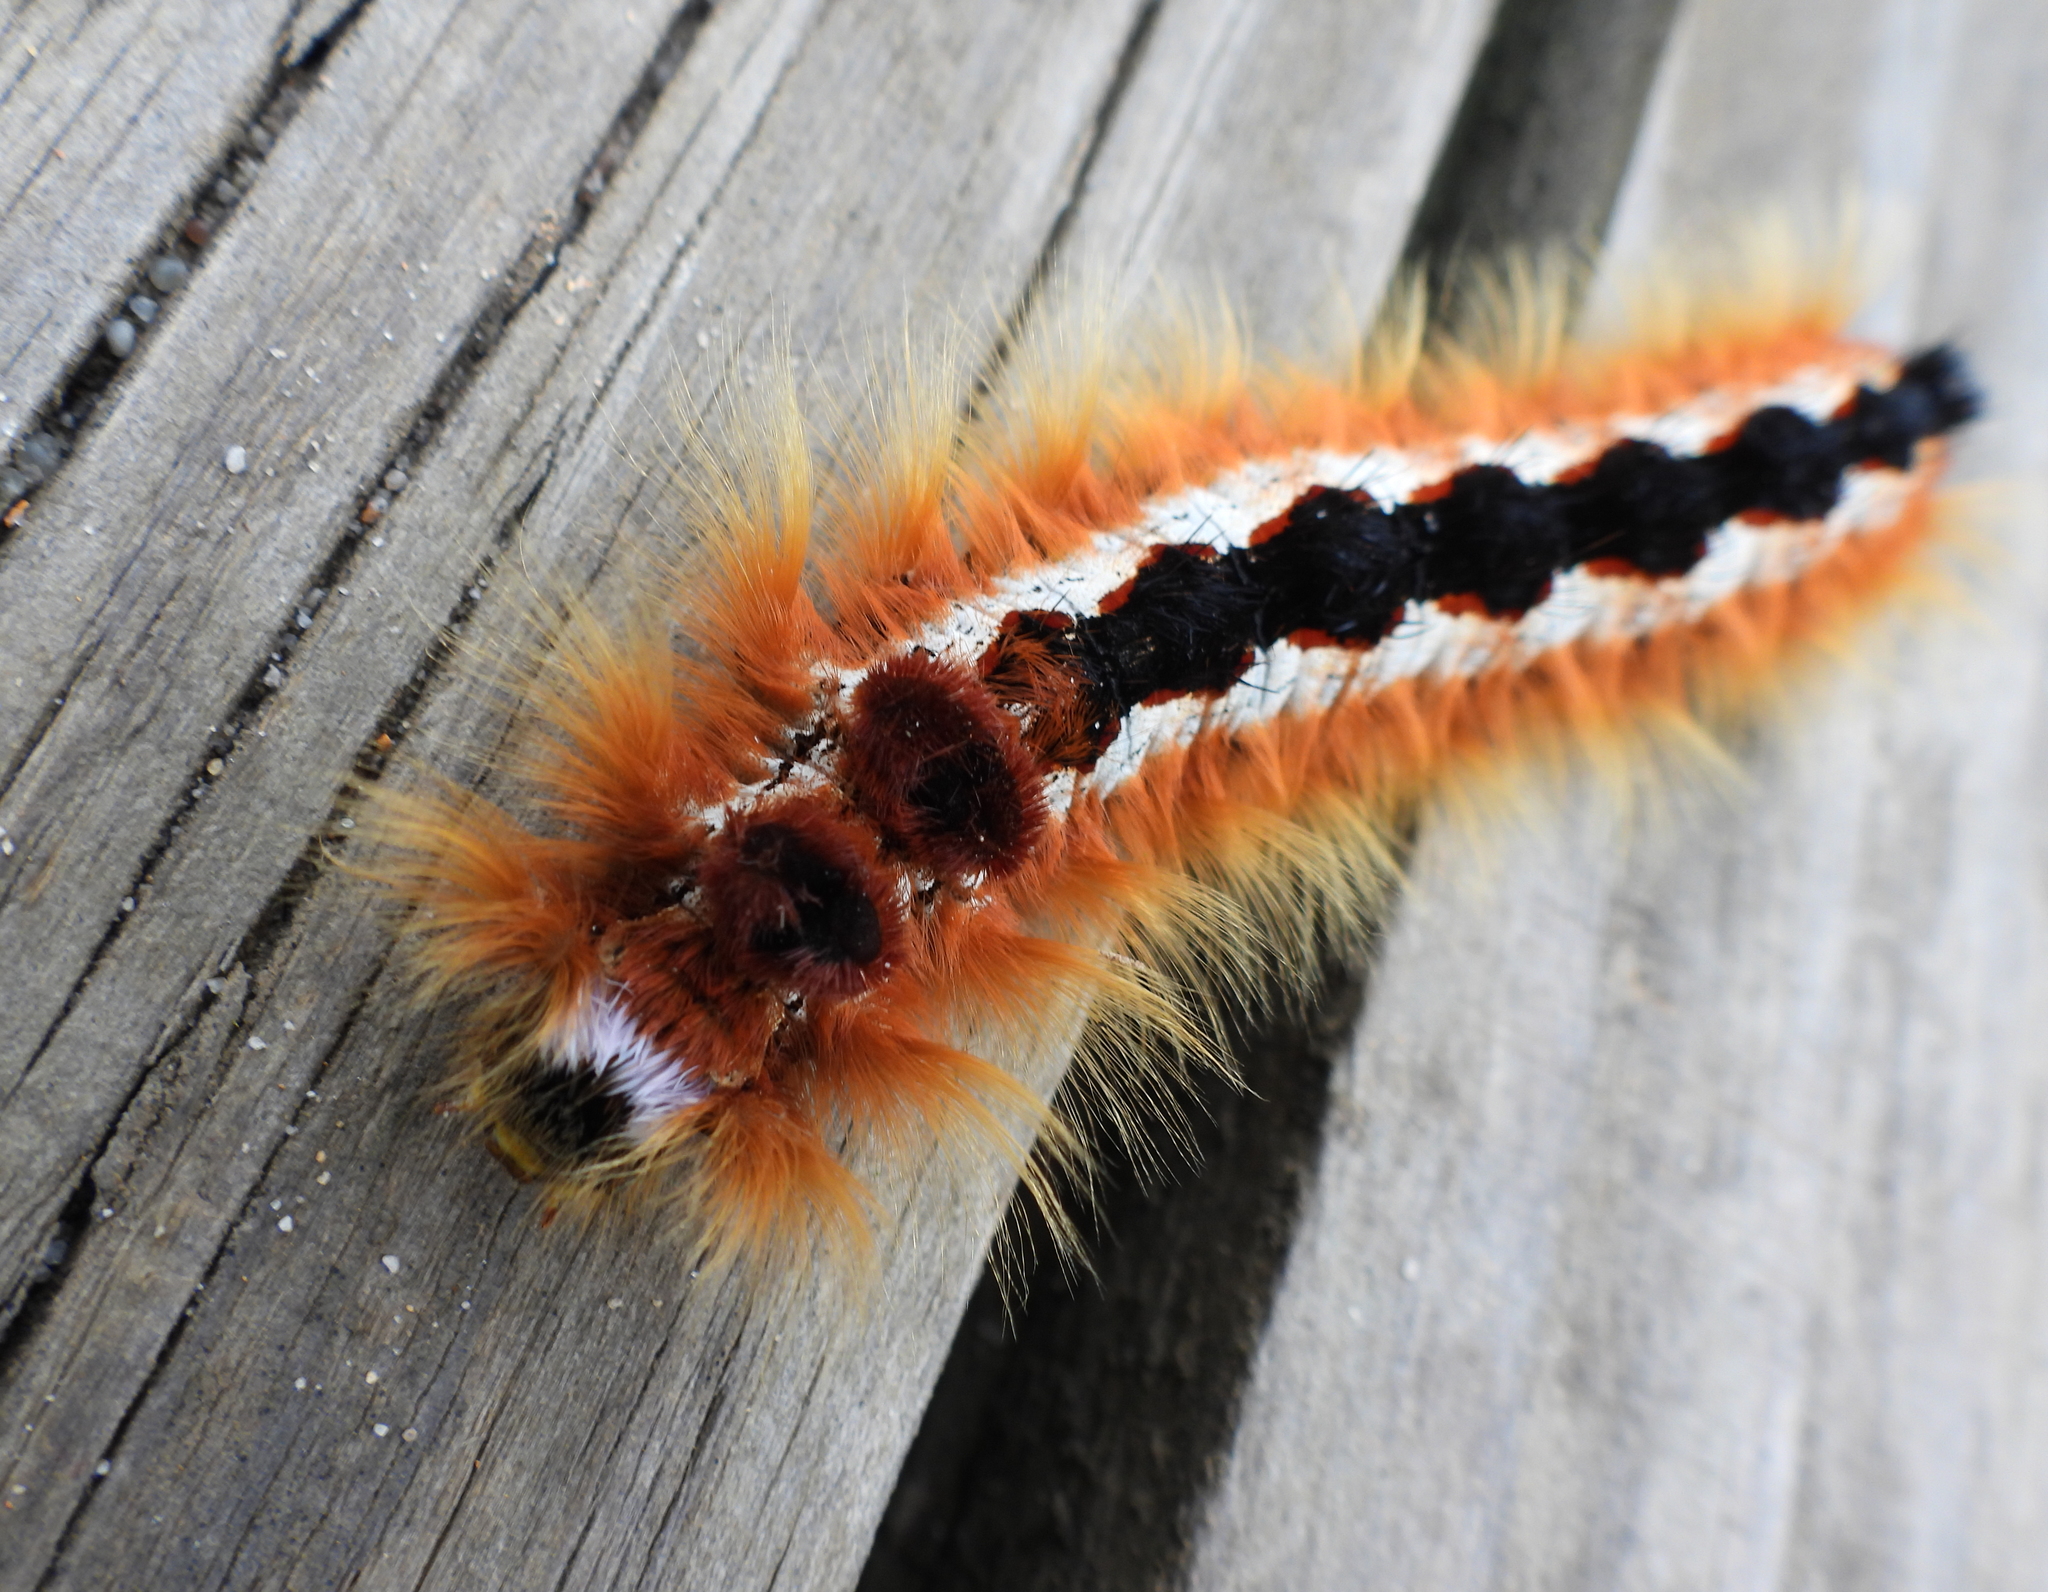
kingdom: Animalia
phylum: Arthropoda
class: Insecta
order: Lepidoptera
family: Lasiocampidae
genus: Eutricha
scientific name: Eutricha capensis
